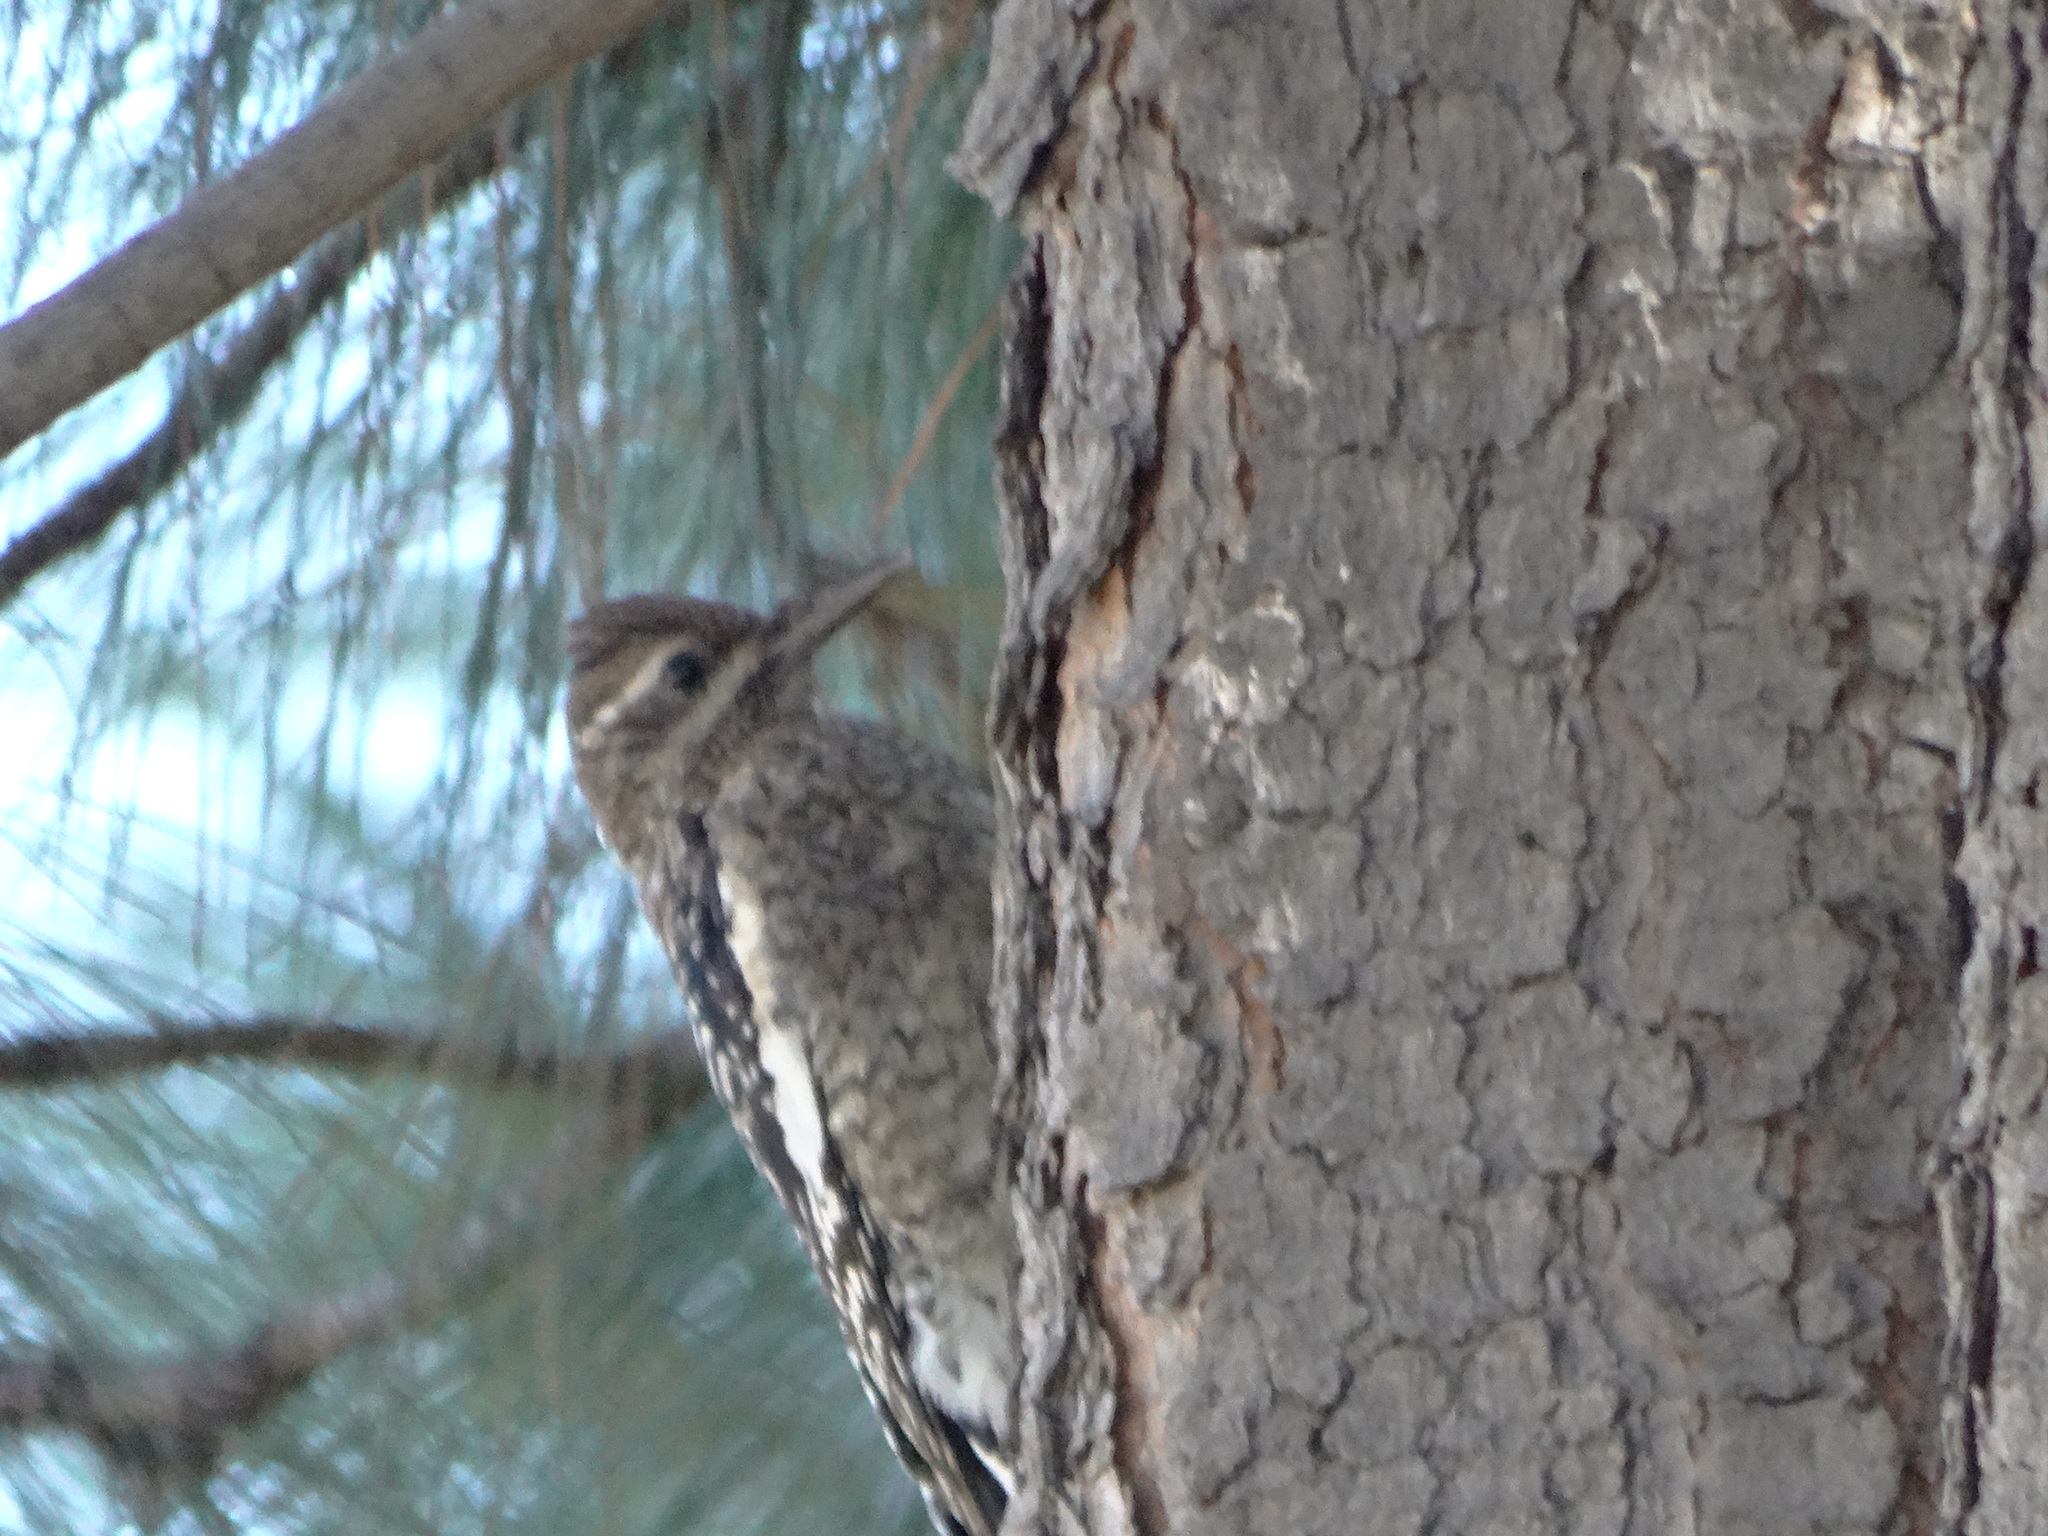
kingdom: Animalia
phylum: Chordata
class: Aves
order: Piciformes
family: Picidae
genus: Sphyrapicus
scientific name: Sphyrapicus varius
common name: Yellow-bellied sapsucker
